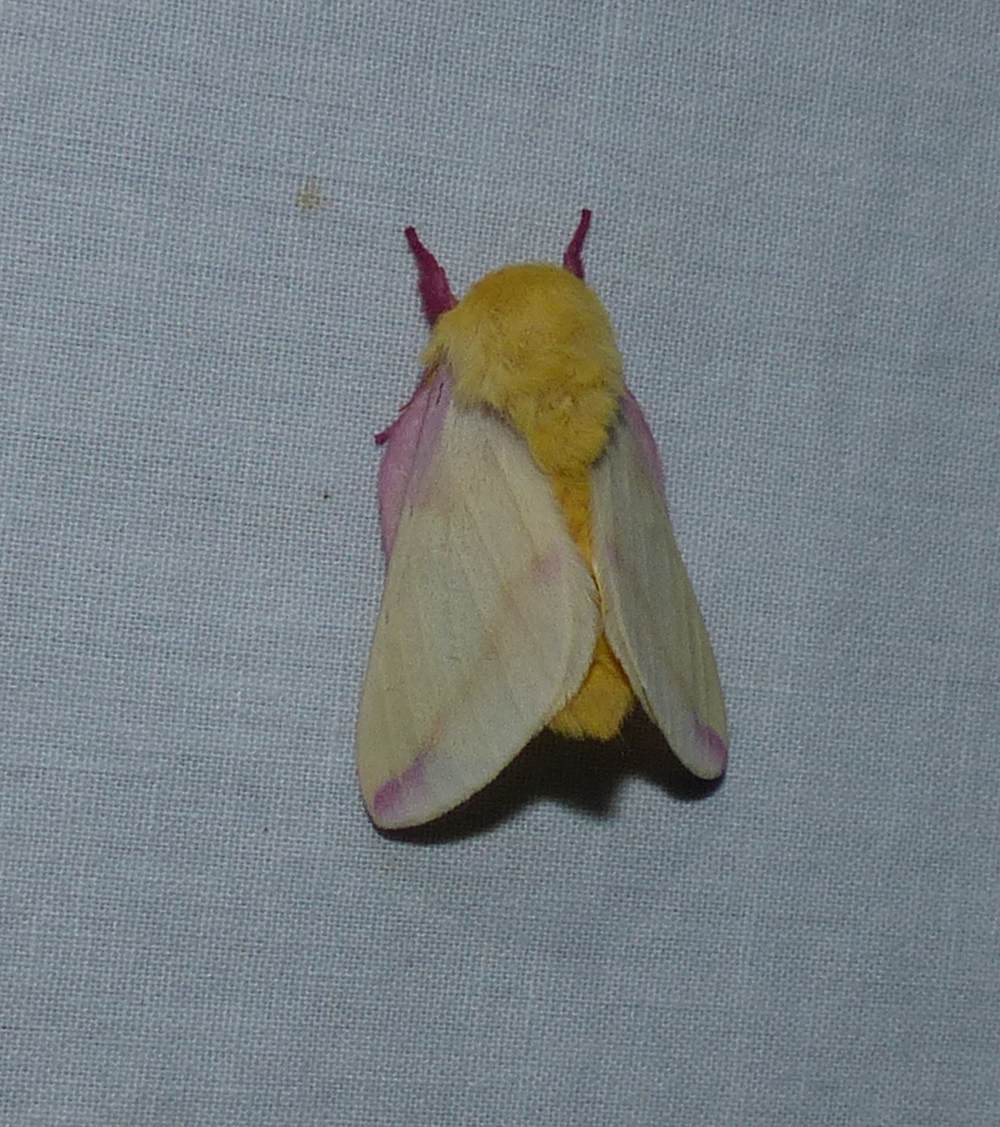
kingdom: Animalia
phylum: Arthropoda
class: Insecta
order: Lepidoptera
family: Saturniidae
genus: Dryocampa
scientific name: Dryocampa rubicunda
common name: Rosy maple moth
